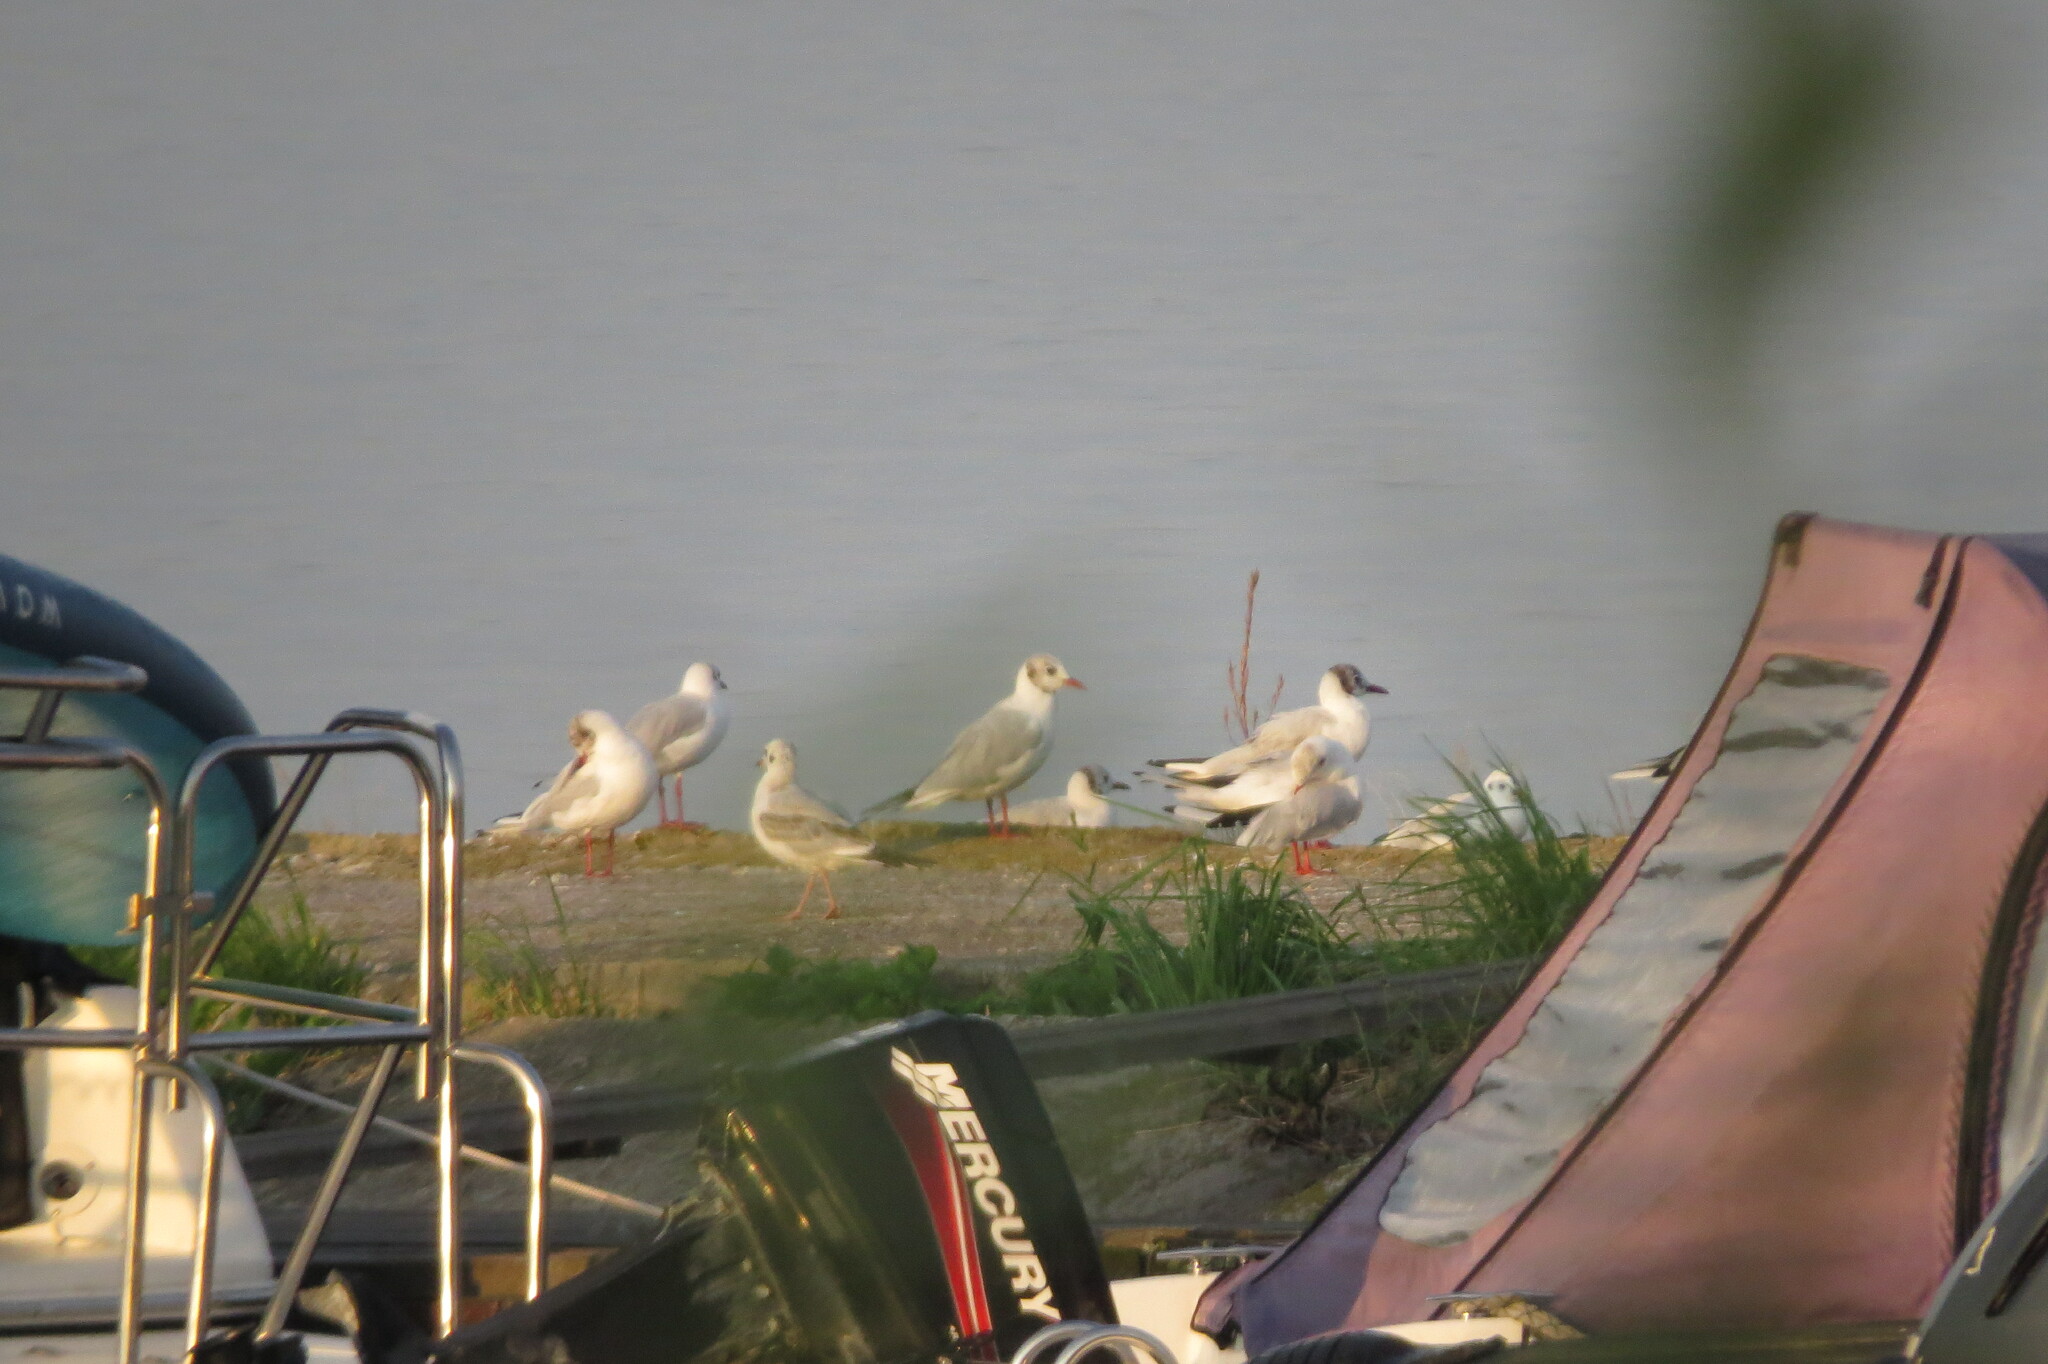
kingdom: Animalia
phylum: Chordata
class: Aves
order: Charadriiformes
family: Laridae
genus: Chroicocephalus
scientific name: Chroicocephalus ridibundus
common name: Black-headed gull
